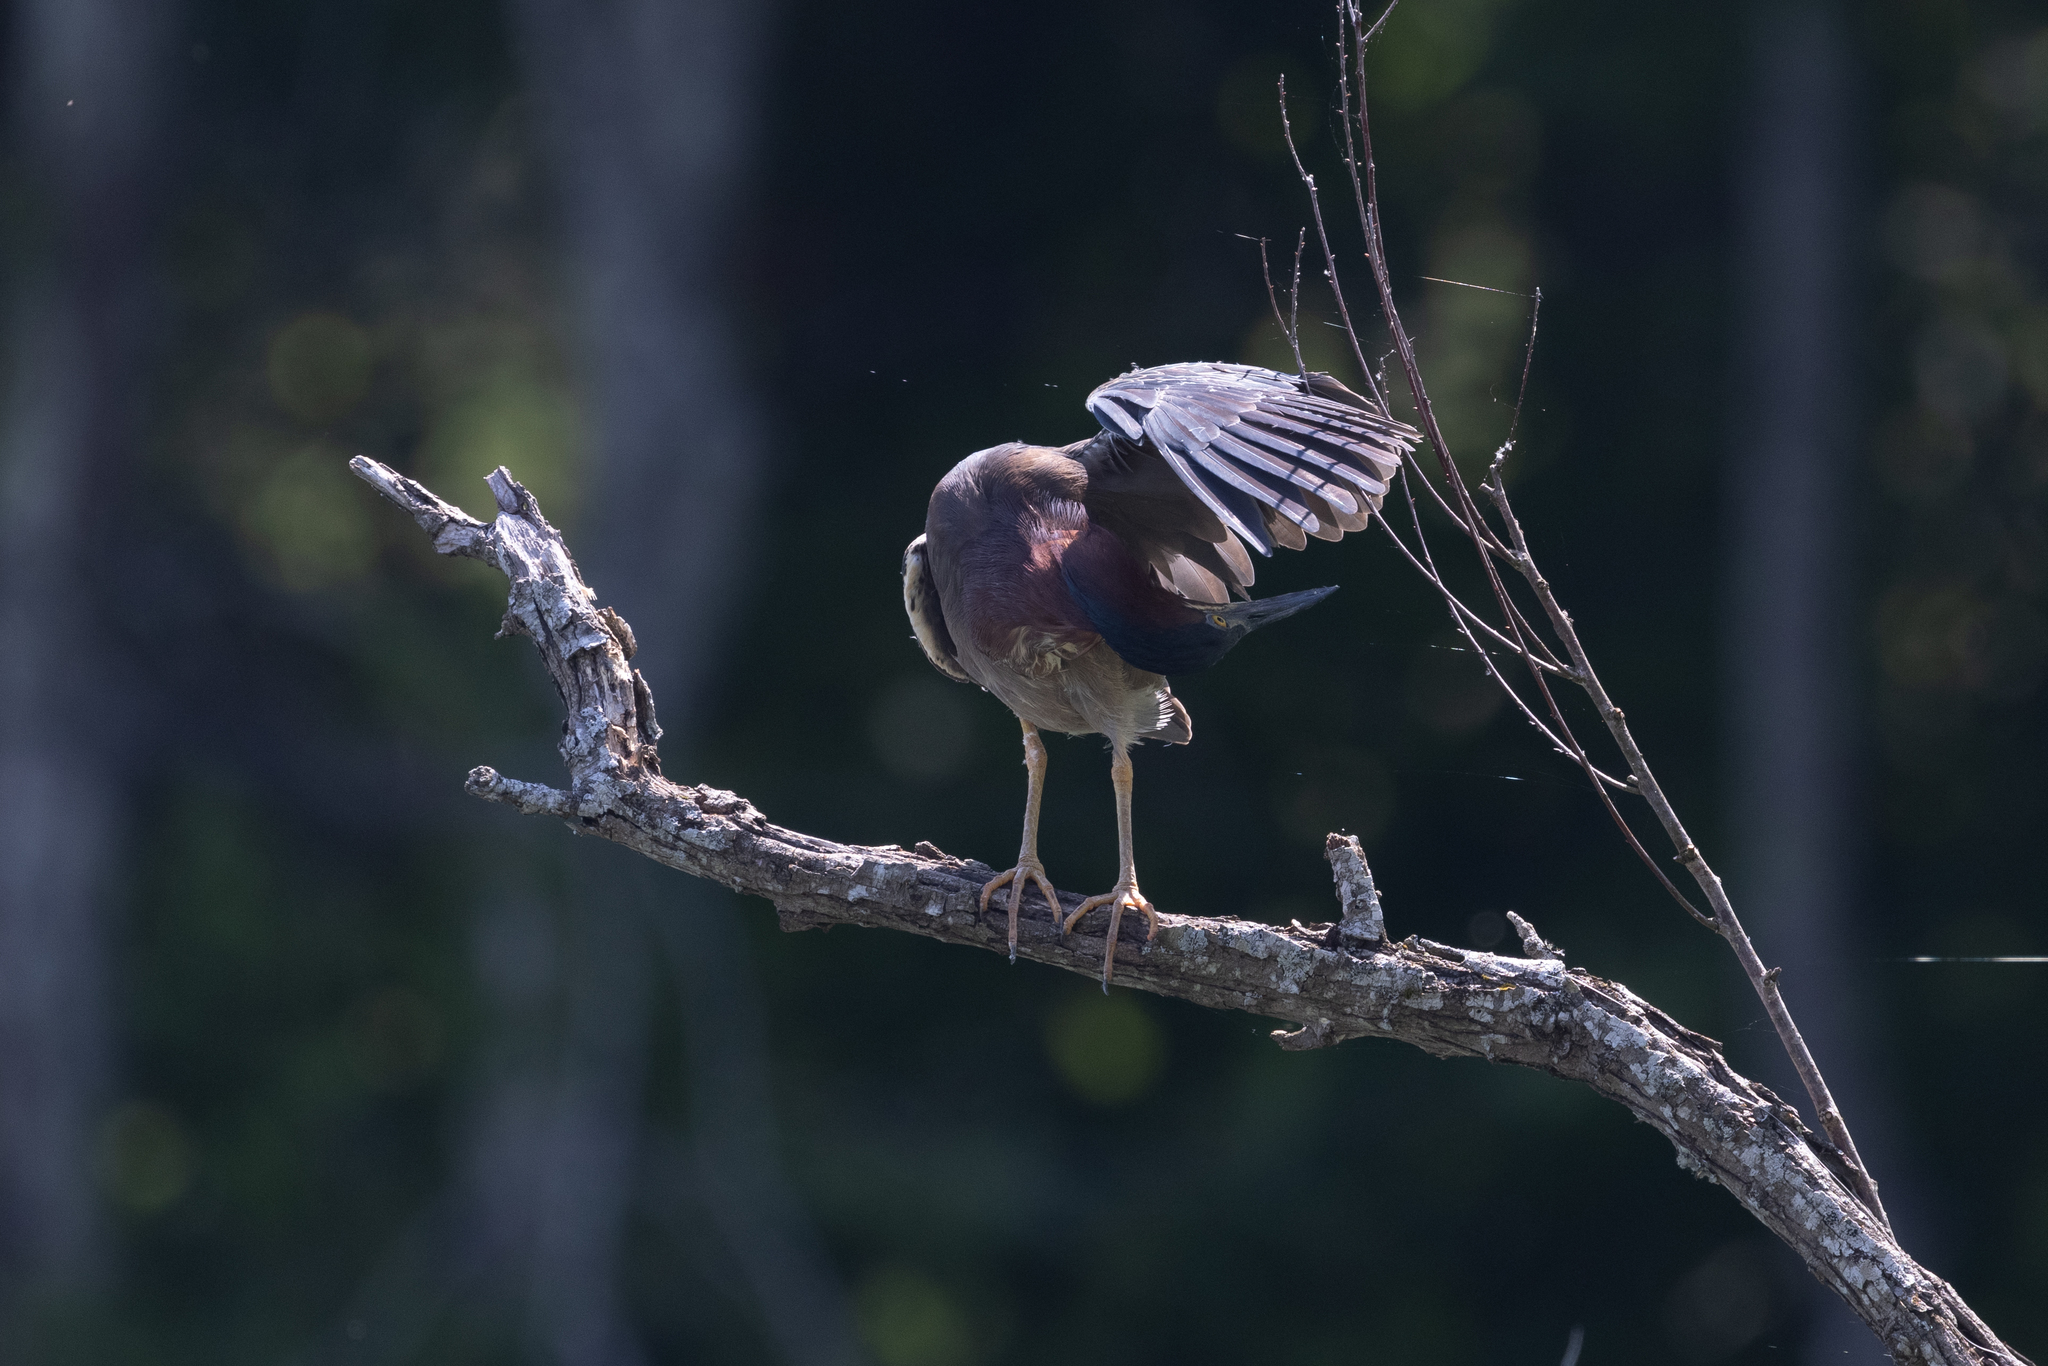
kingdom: Animalia
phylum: Chordata
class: Aves
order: Pelecaniformes
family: Ardeidae
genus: Butorides
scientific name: Butorides virescens
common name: Green heron
